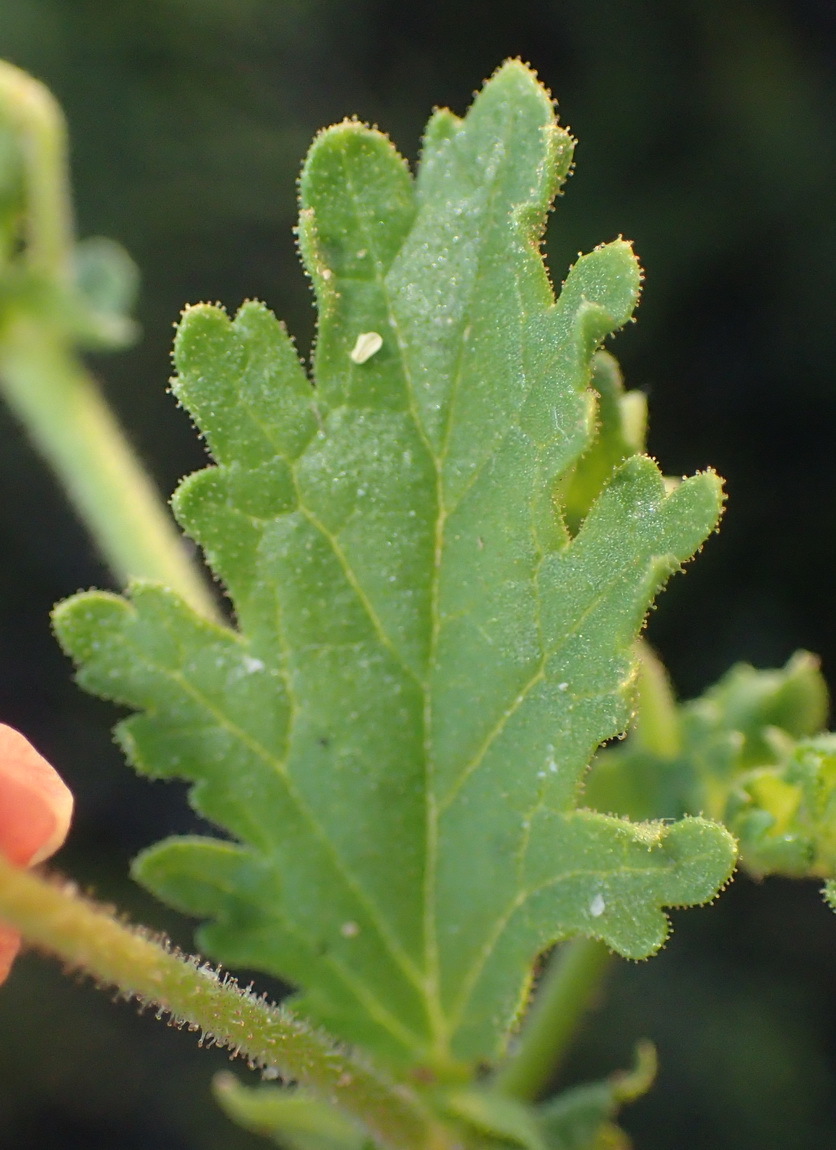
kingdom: Plantae
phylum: Tracheophyta
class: Magnoliopsida
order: Malvales
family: Malvaceae
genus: Hermannia
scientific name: Hermannia diffusa
